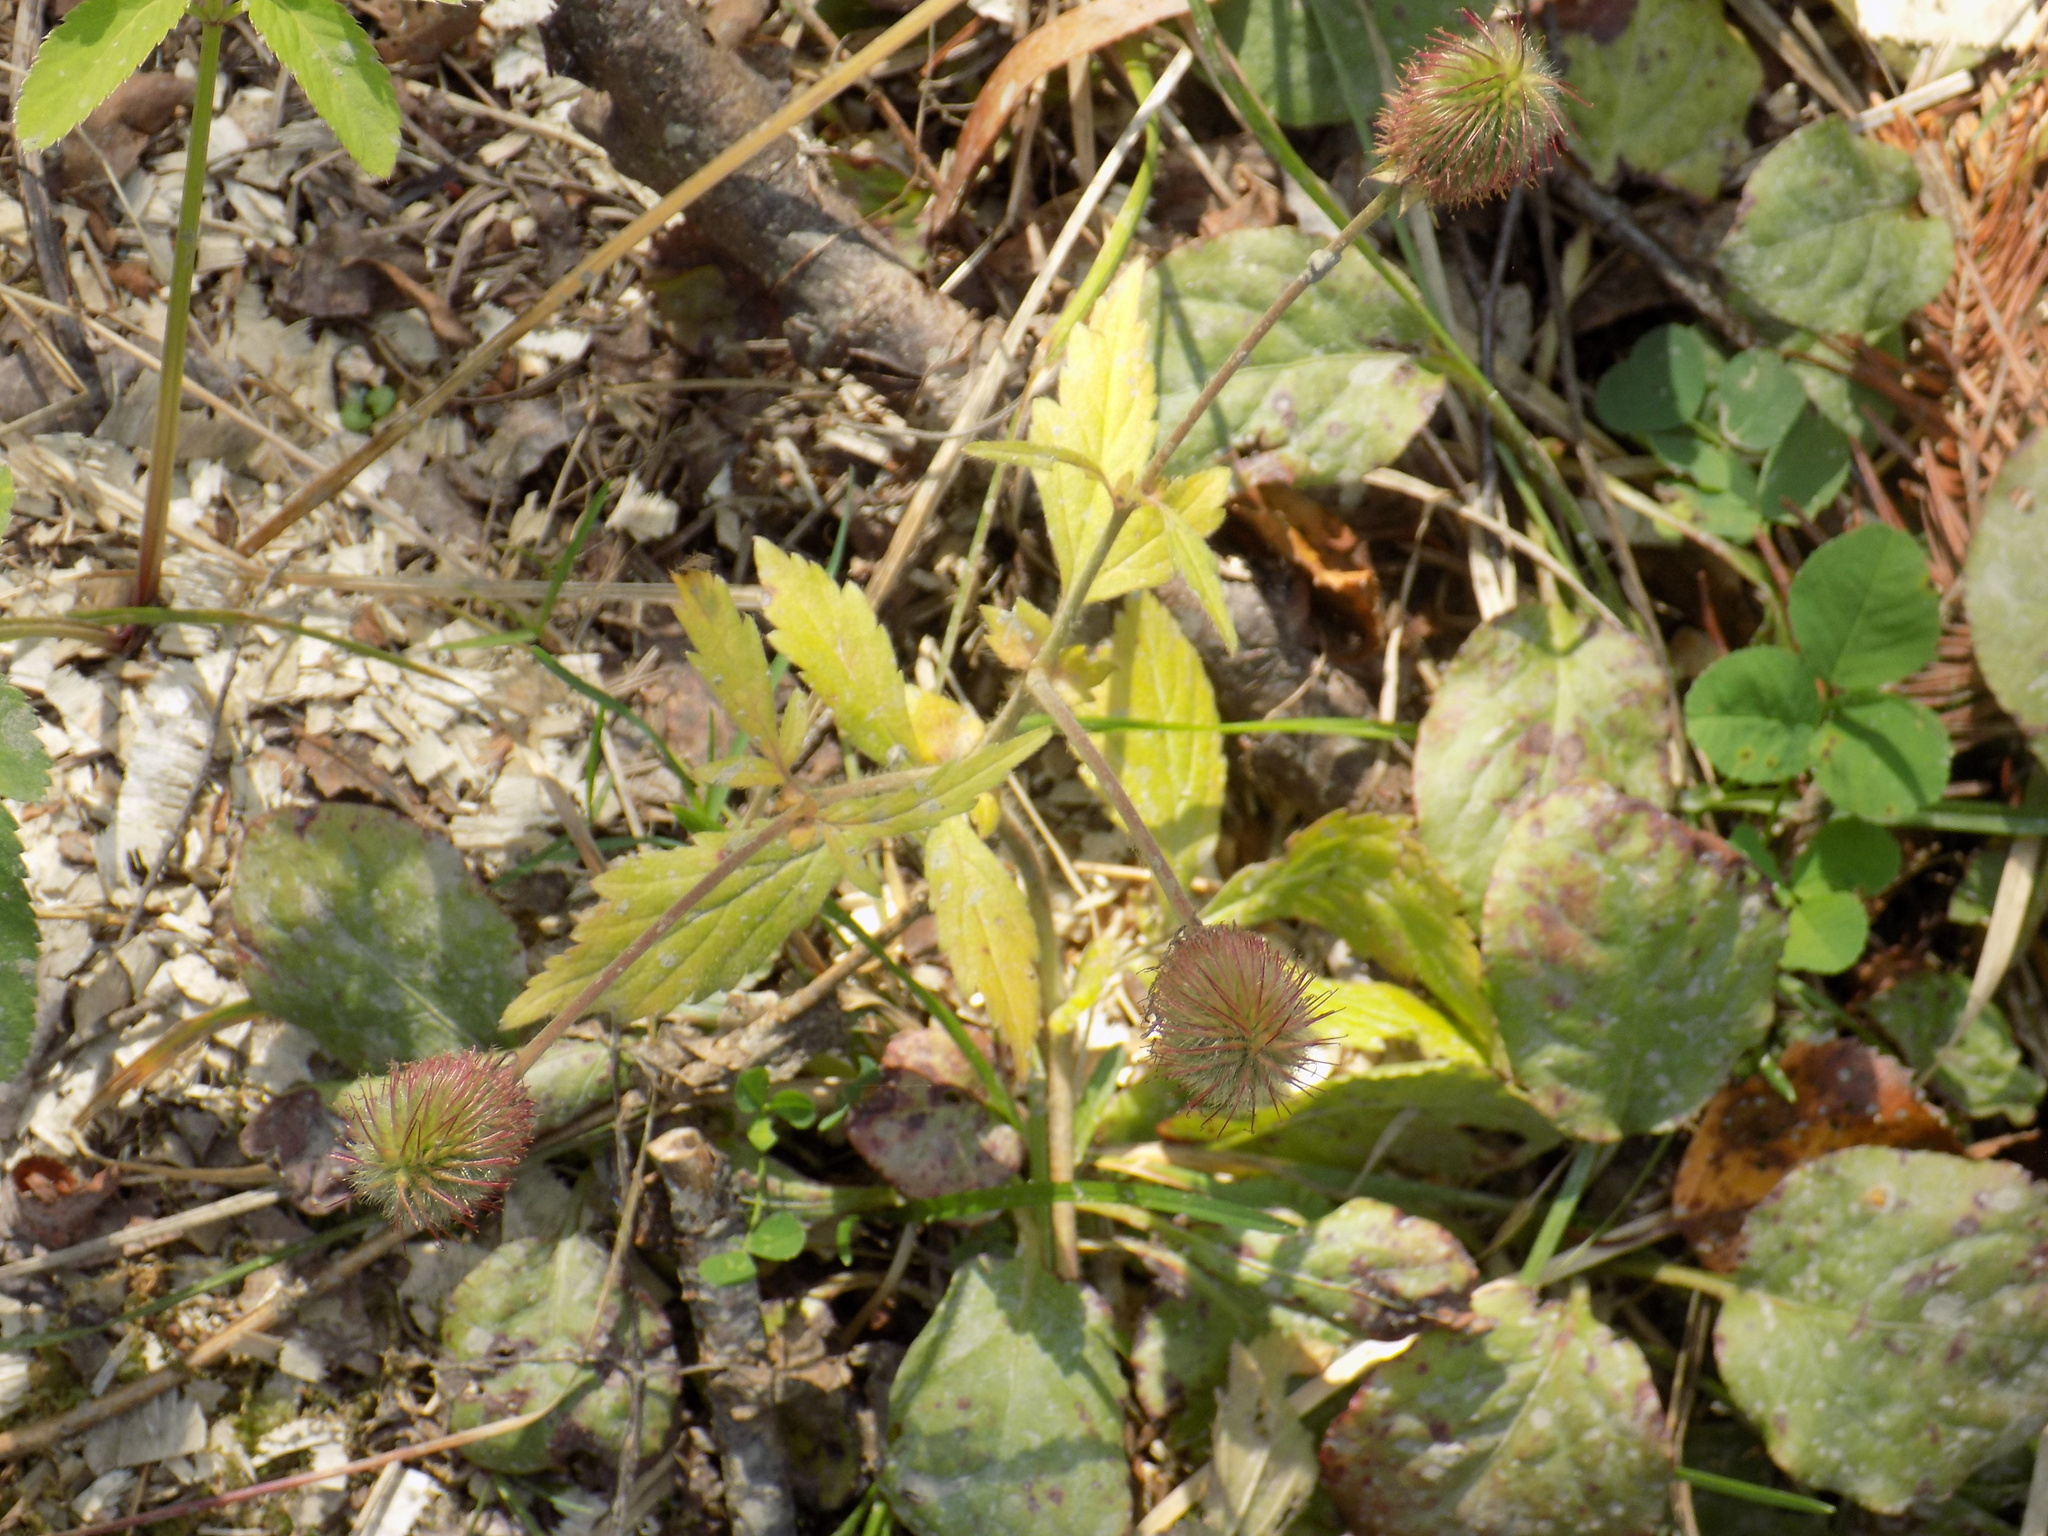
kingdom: Plantae
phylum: Tracheophyta
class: Magnoliopsida
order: Rosales
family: Rosaceae
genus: Geum
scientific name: Geum aleppicum
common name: Yellow avens
